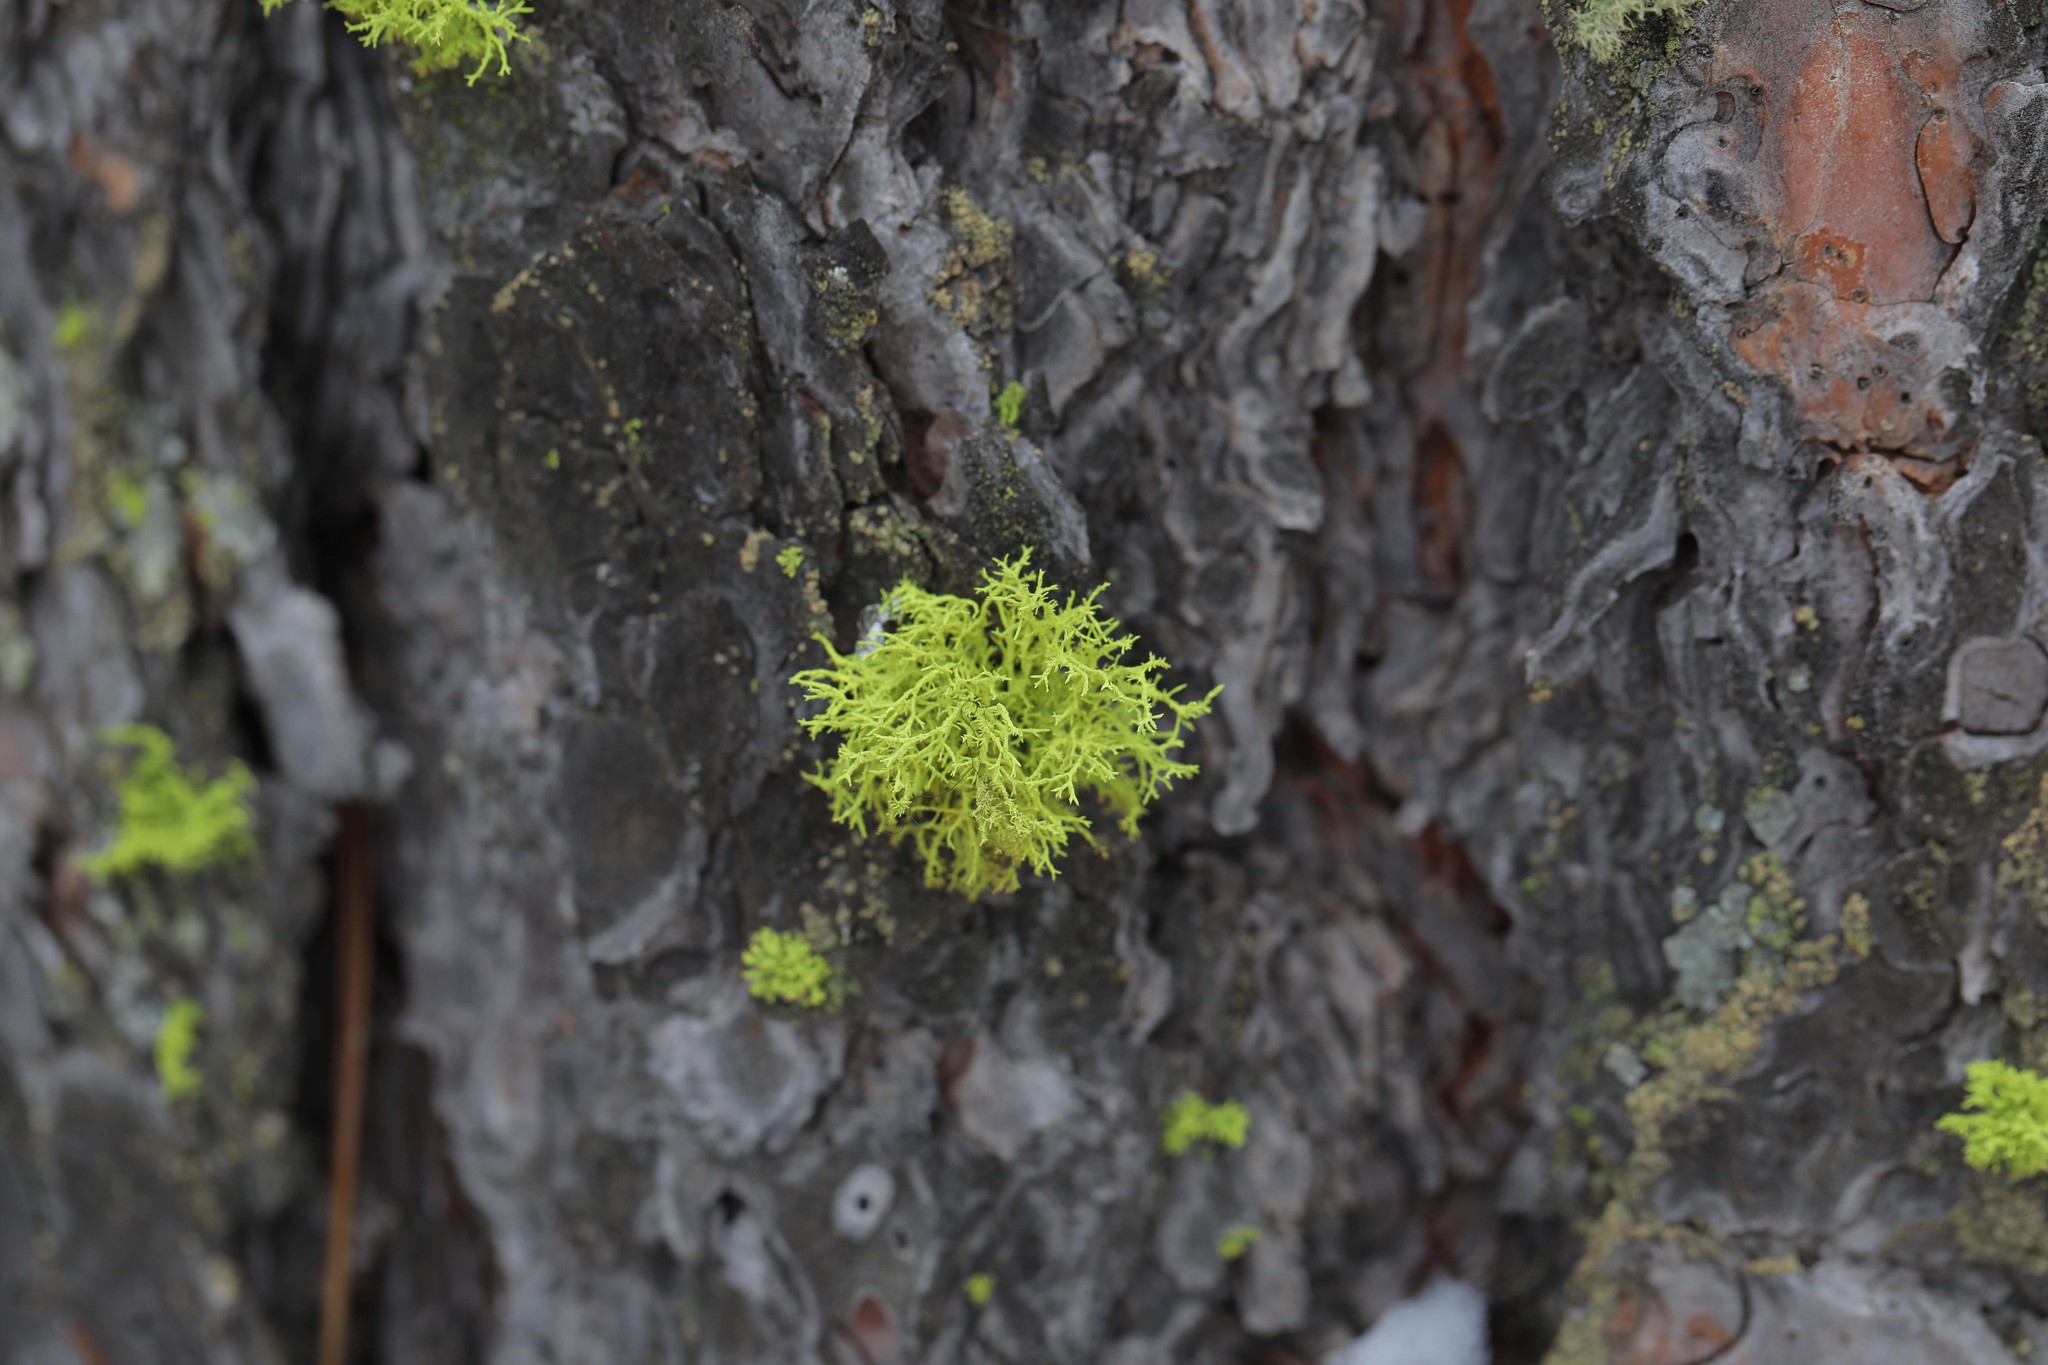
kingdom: Fungi
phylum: Ascomycota
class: Lecanoromycetes
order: Lecanorales
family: Parmeliaceae
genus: Letharia
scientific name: Letharia vulpina
